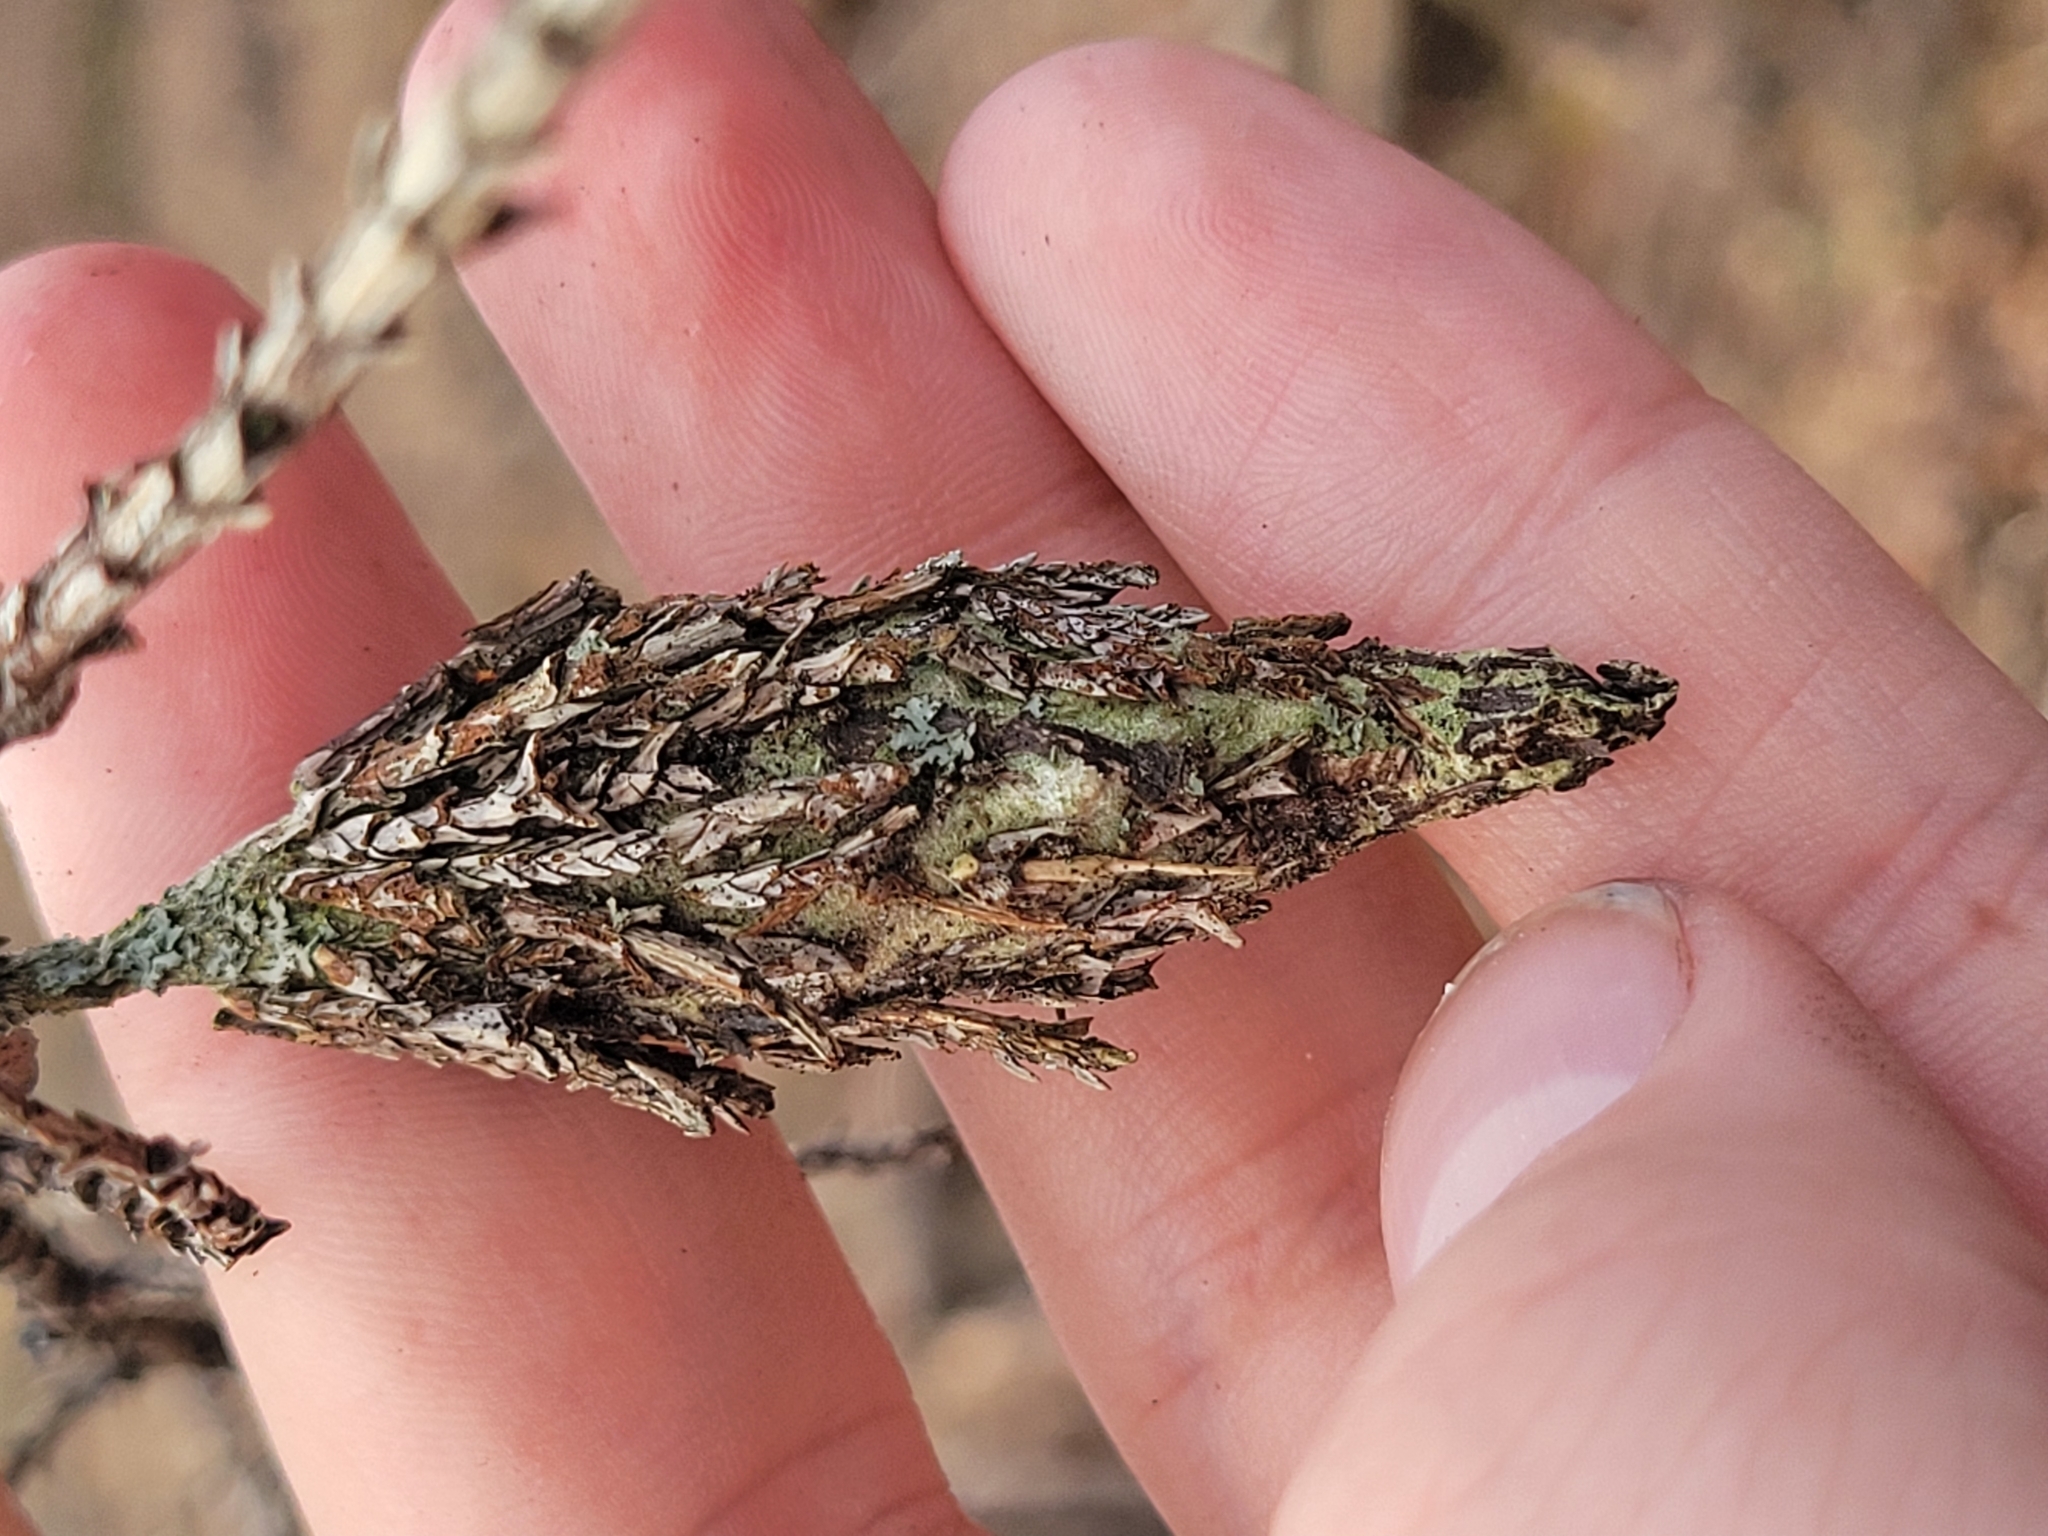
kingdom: Animalia
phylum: Arthropoda
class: Insecta
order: Lepidoptera
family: Psychidae
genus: Thyridopteryx
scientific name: Thyridopteryx ephemeraeformis
